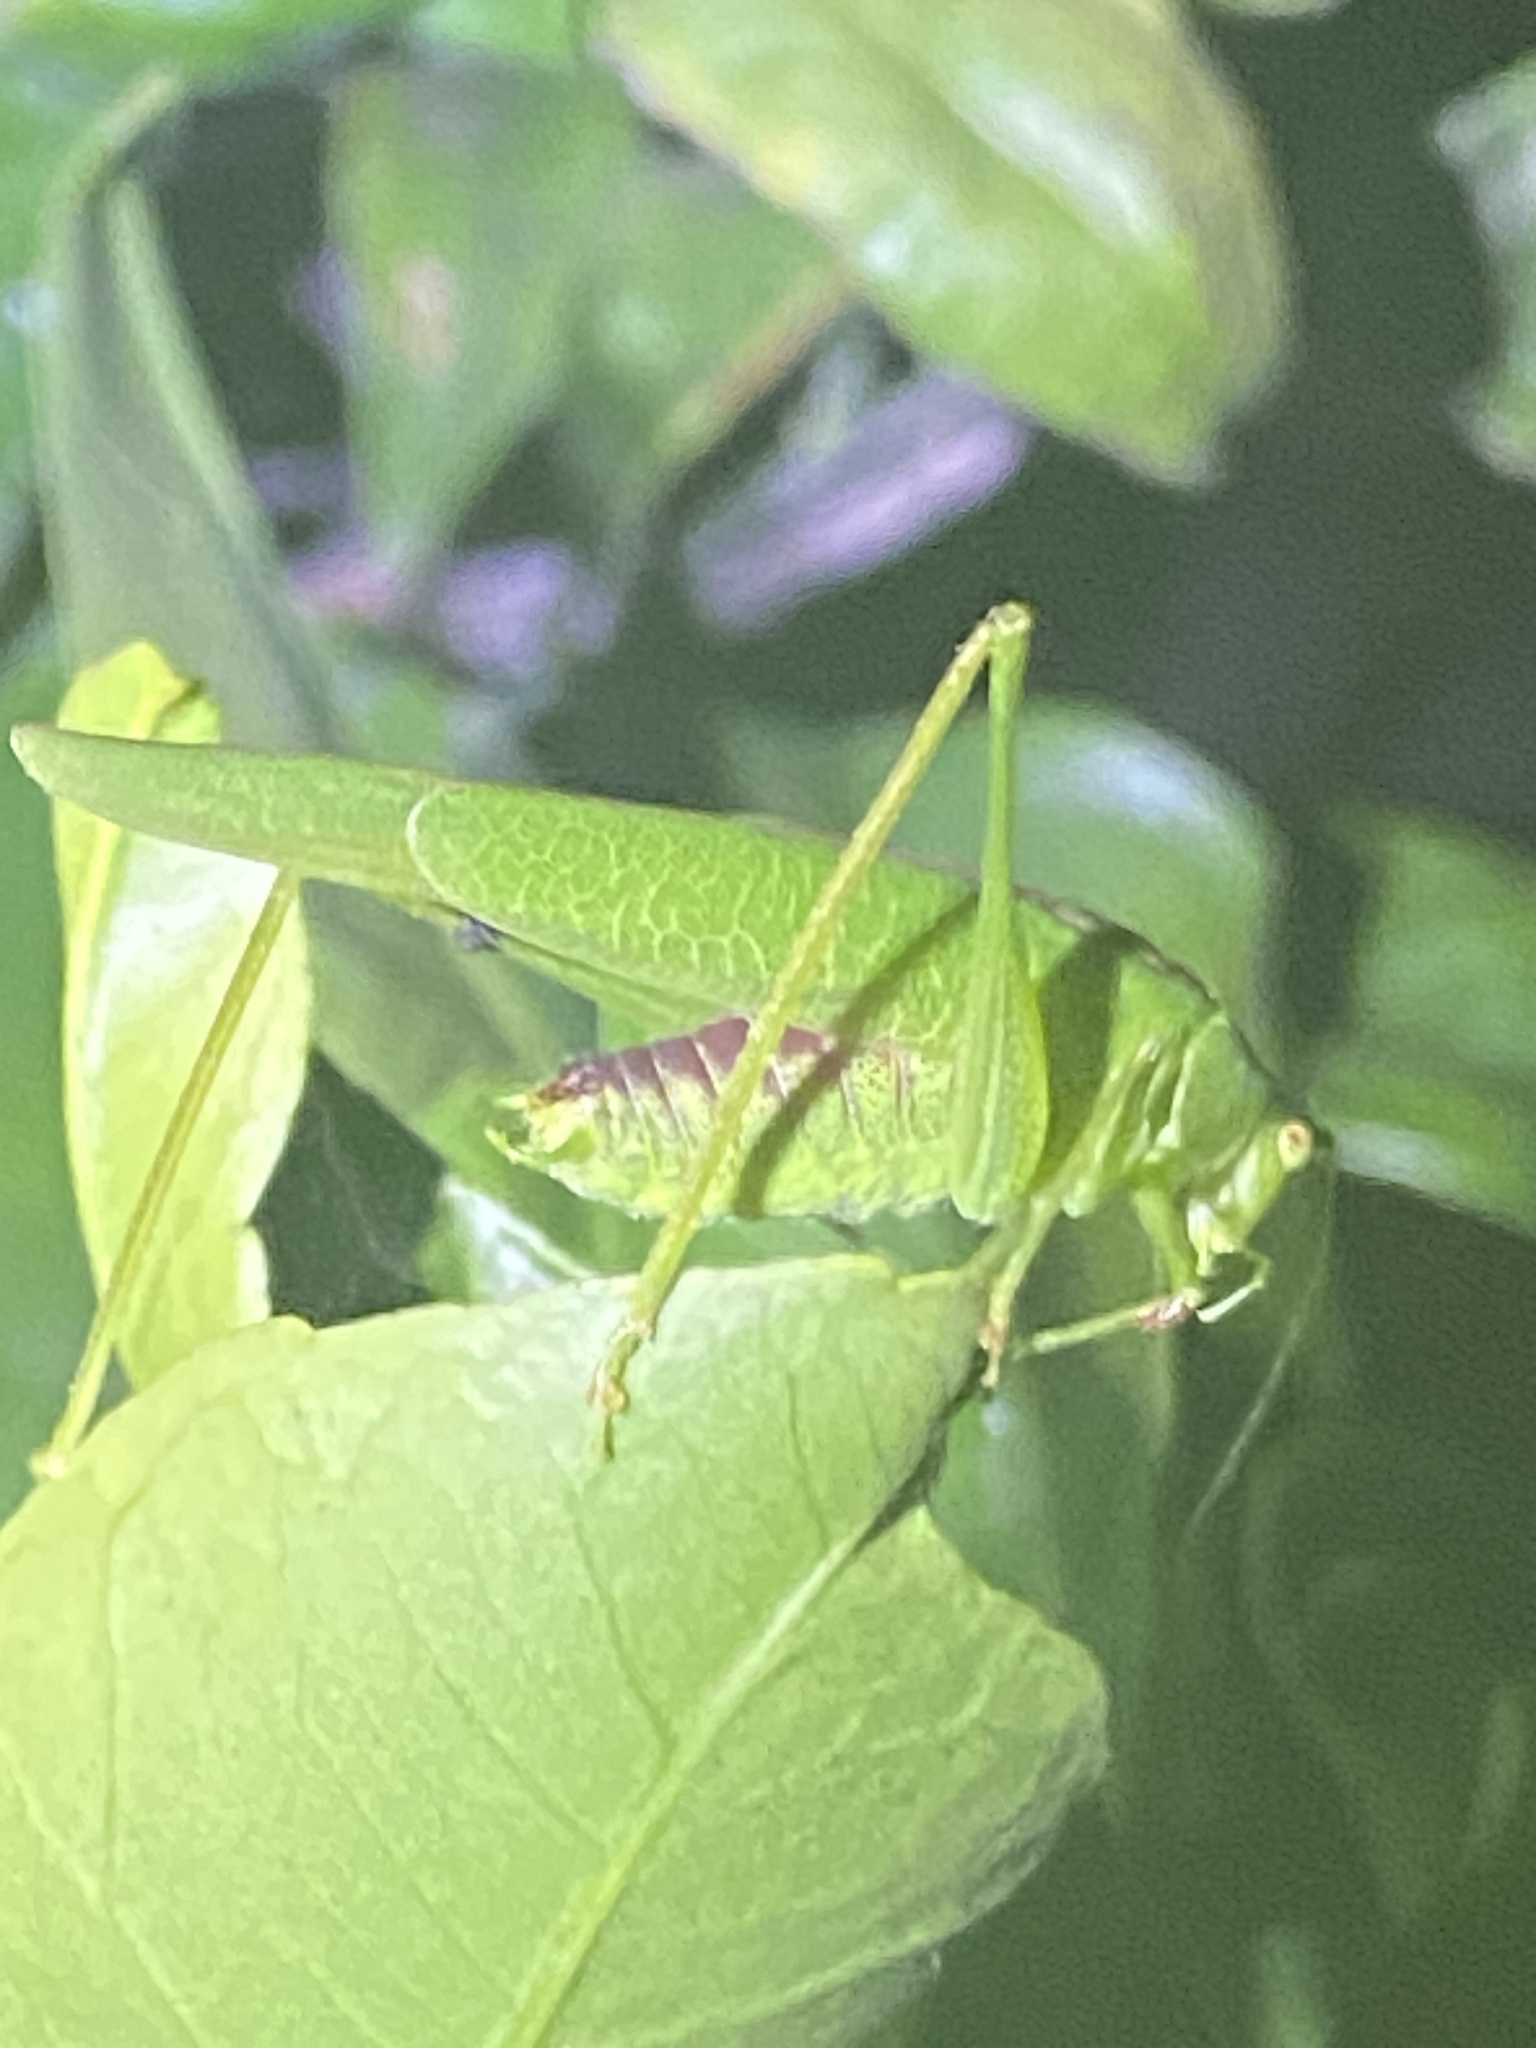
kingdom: Animalia
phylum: Arthropoda
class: Insecta
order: Orthoptera
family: Tettigoniidae
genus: Phaneroptera
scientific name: Phaneroptera nana
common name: Southern sickle bush-cricket
